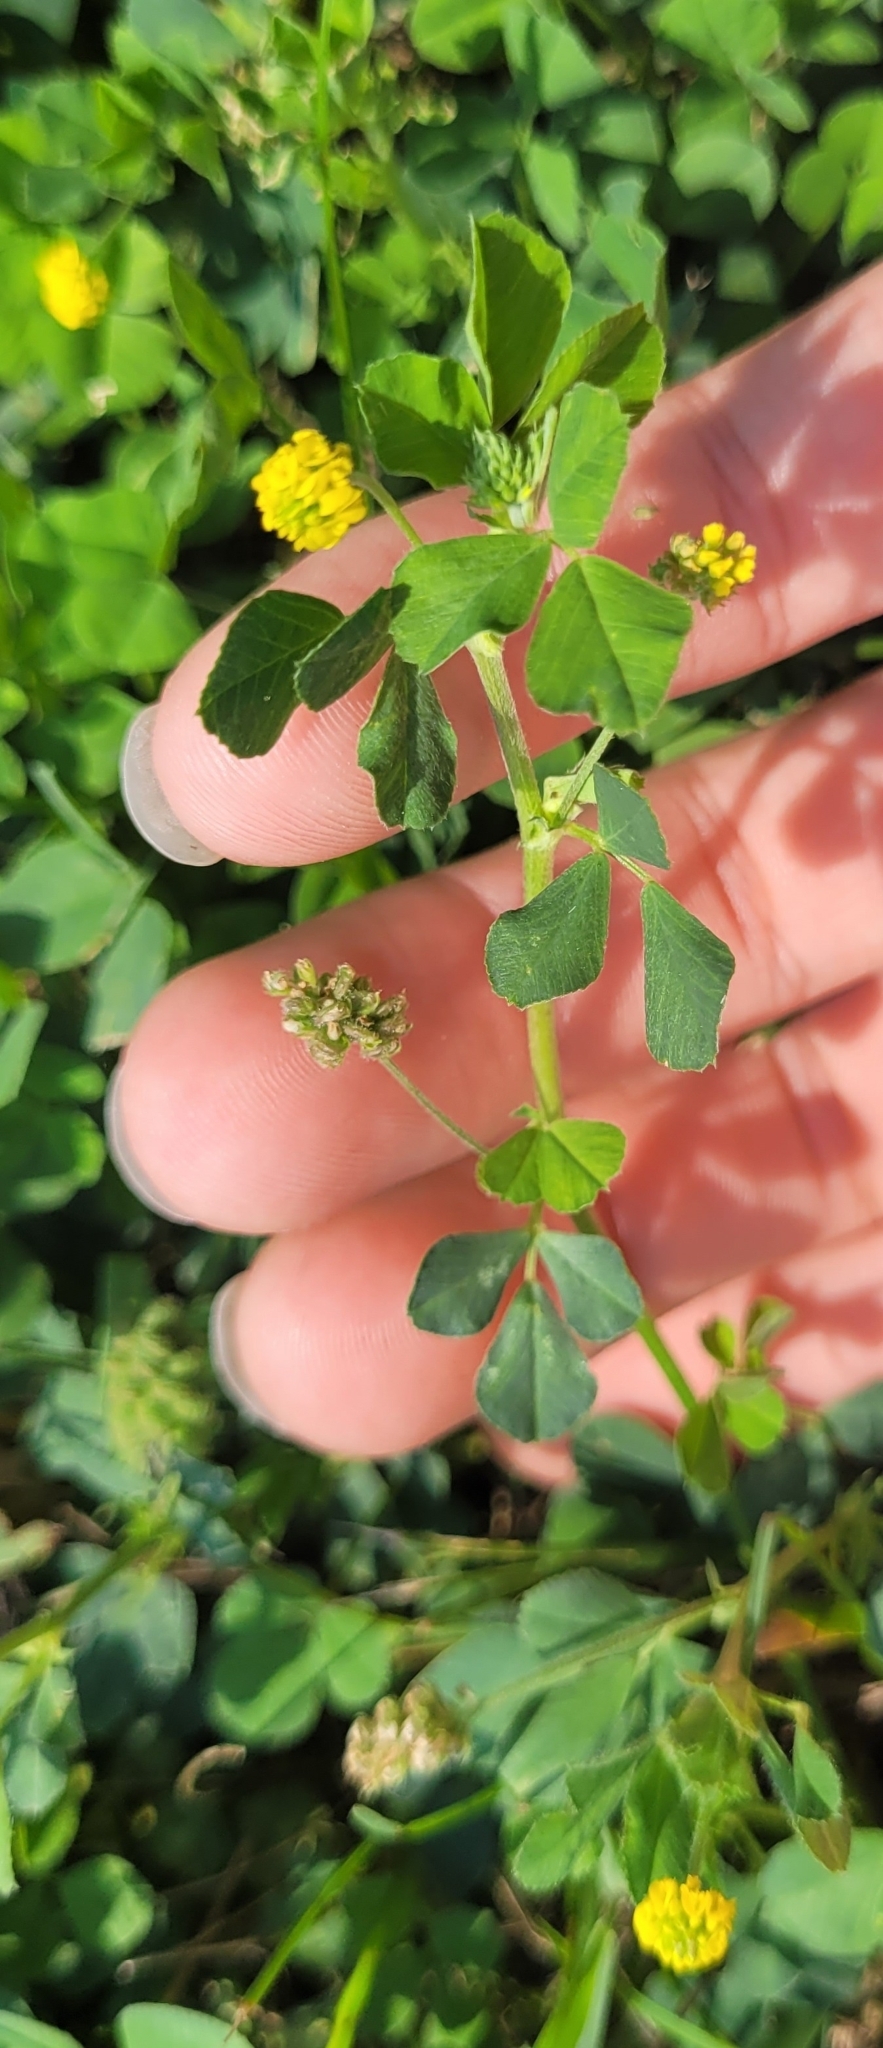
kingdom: Plantae
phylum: Tracheophyta
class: Magnoliopsida
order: Fabales
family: Fabaceae
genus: Medicago
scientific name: Medicago lupulina
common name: Black medick
